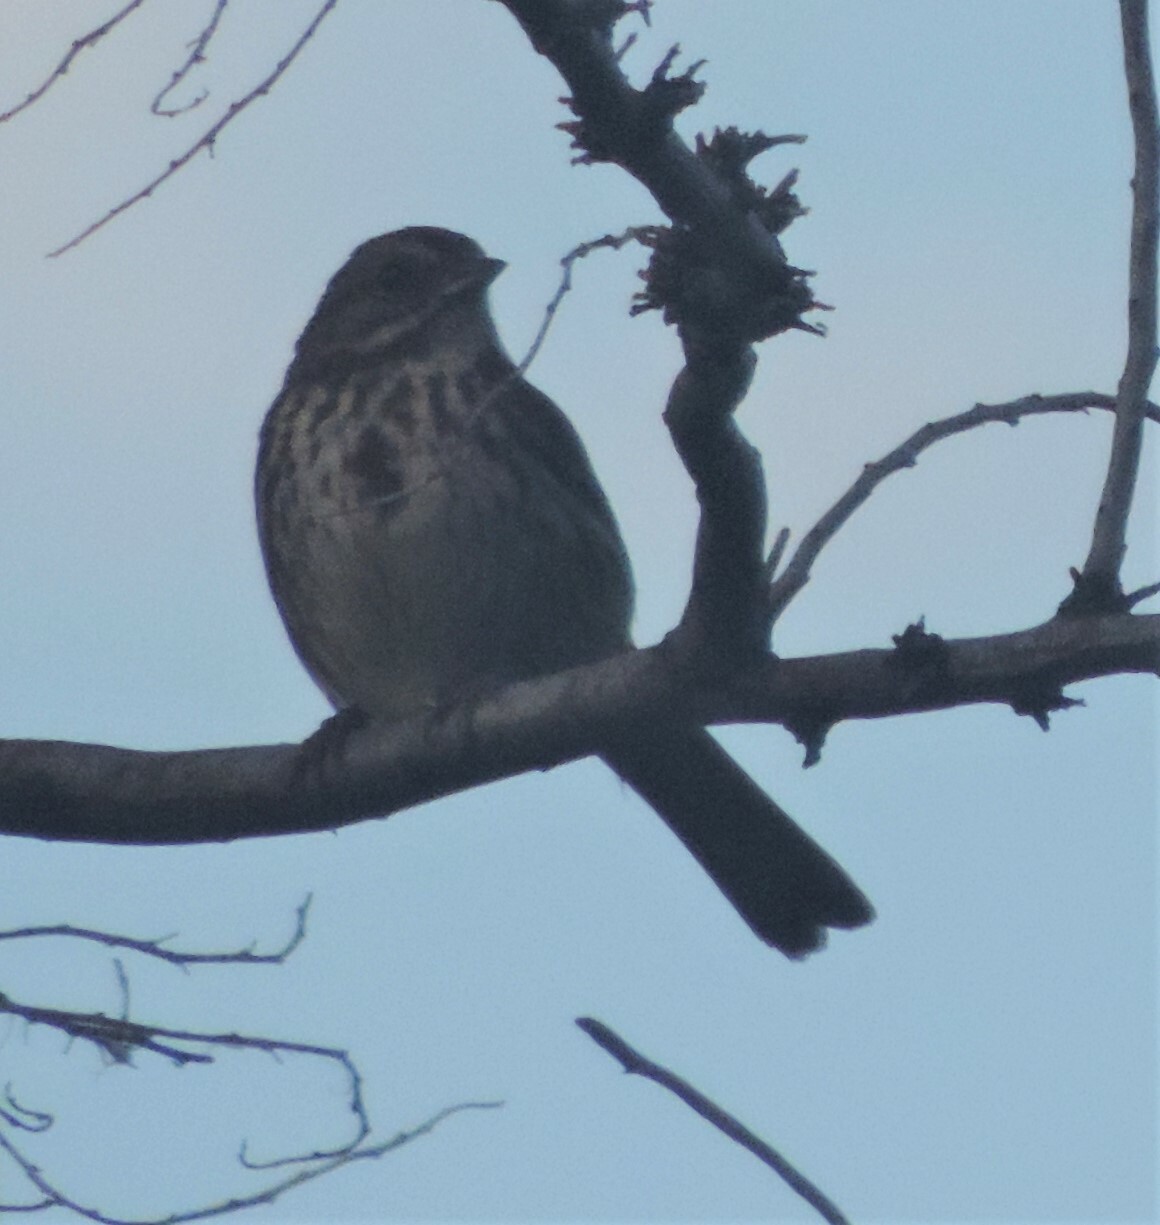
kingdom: Animalia
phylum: Chordata
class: Aves
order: Passeriformes
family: Passerellidae
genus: Melospiza
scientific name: Melospiza melodia
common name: Song sparrow
